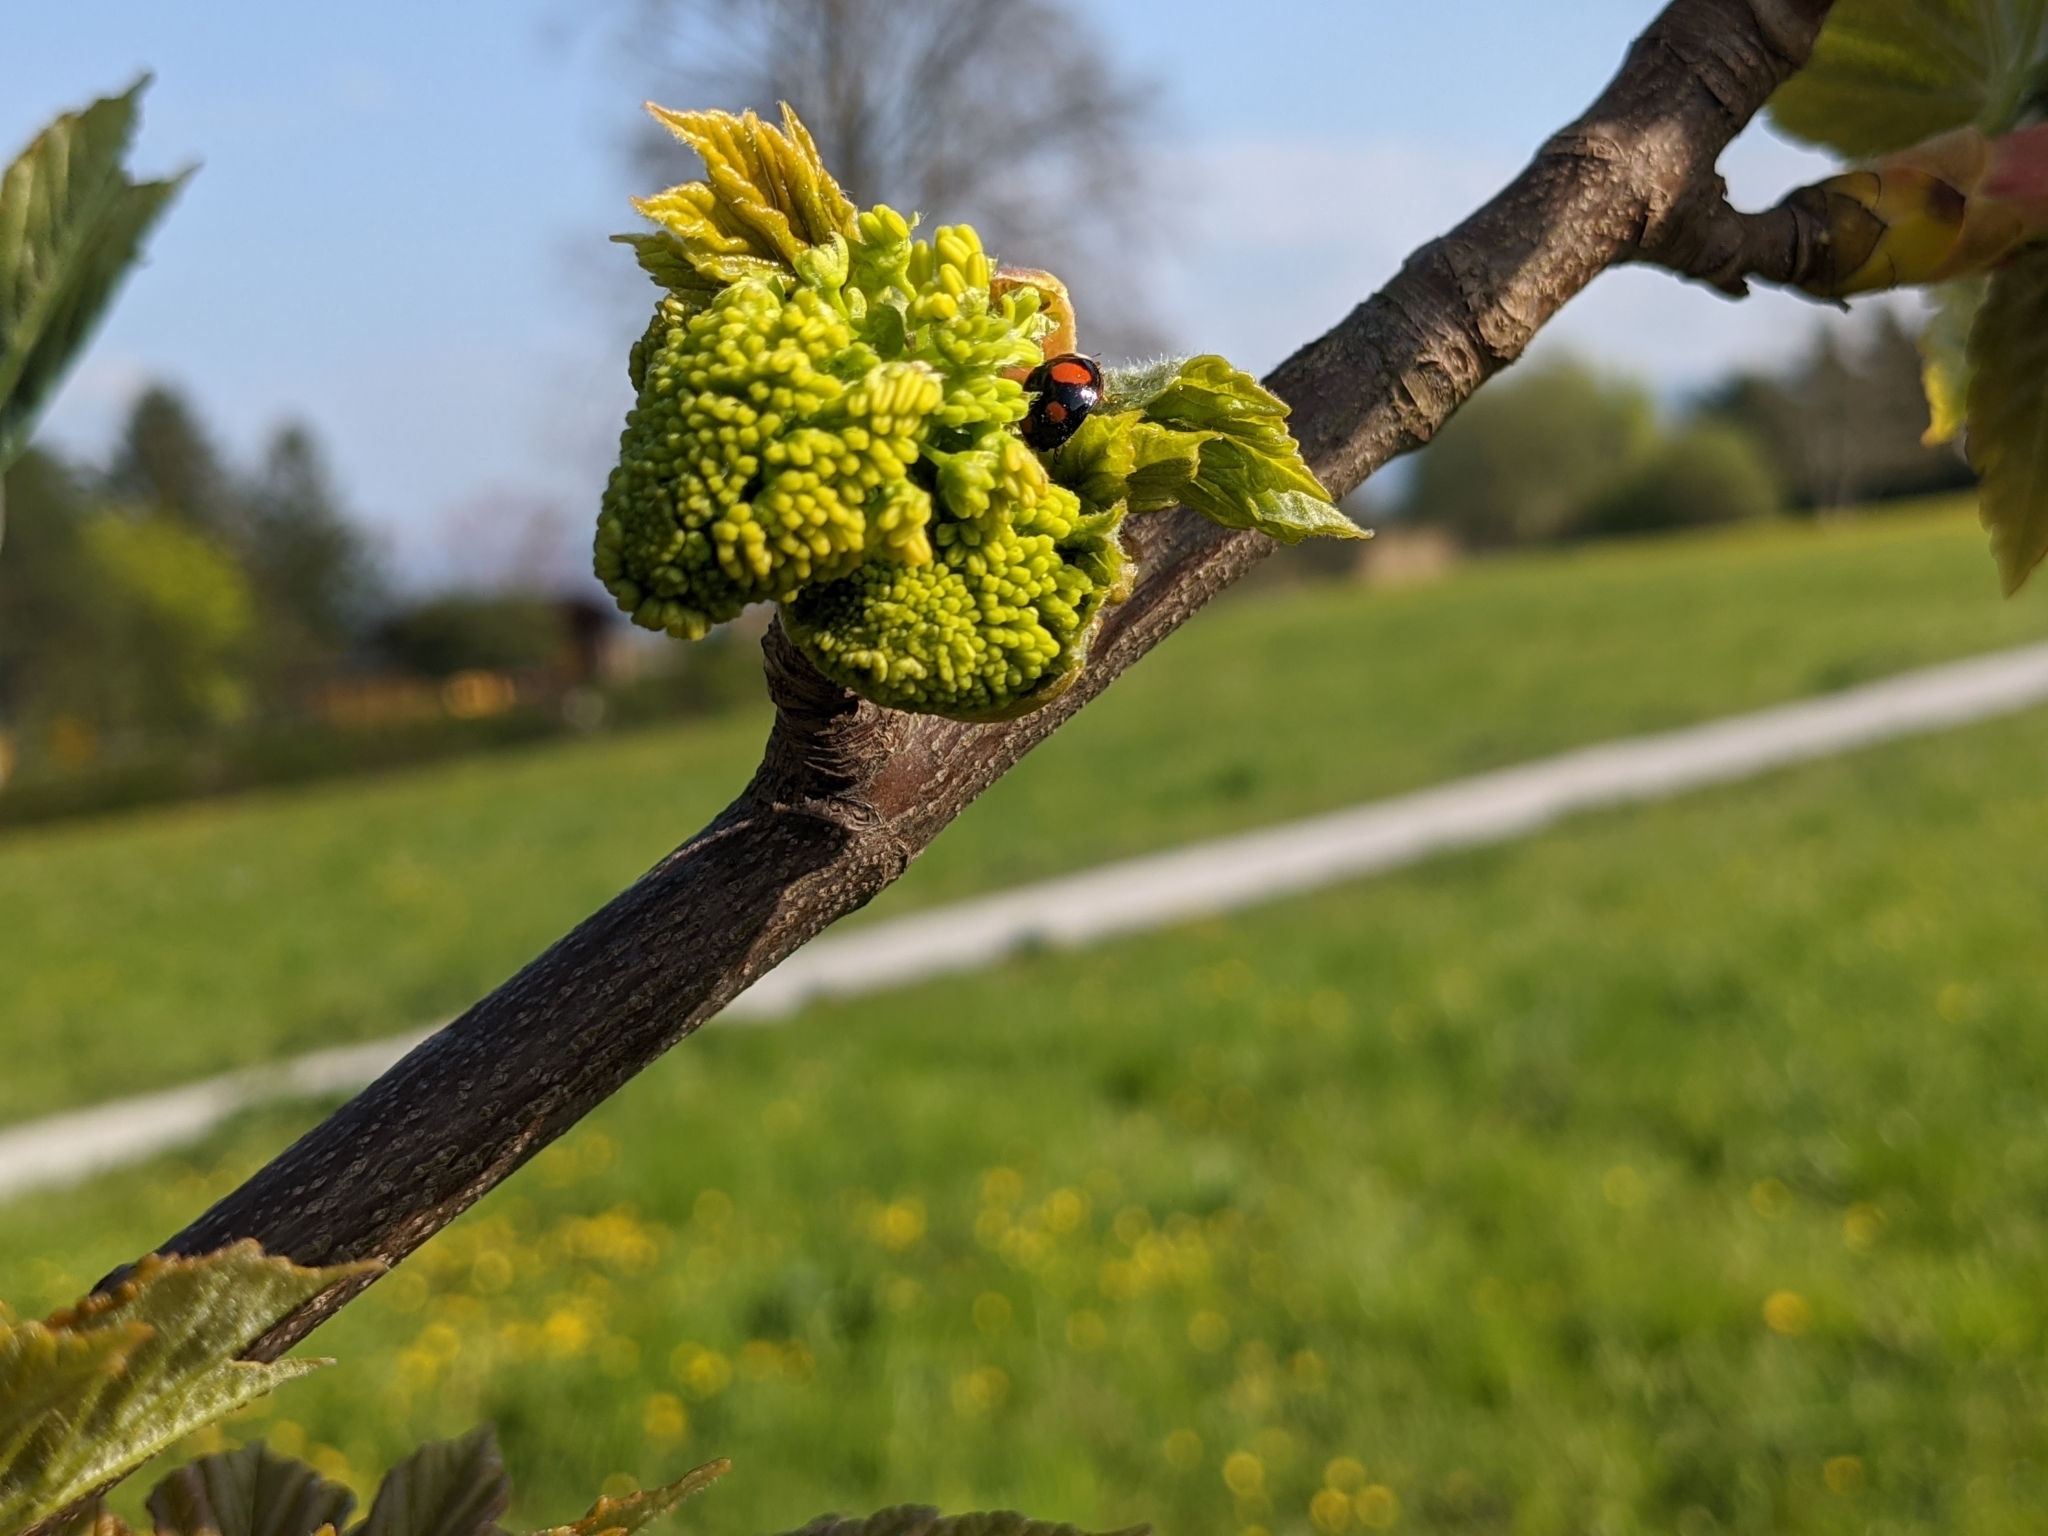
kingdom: Animalia
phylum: Arthropoda
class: Insecta
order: Coleoptera
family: Coccinellidae
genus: Harmonia
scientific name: Harmonia axyridis
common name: Harlequin ladybird
